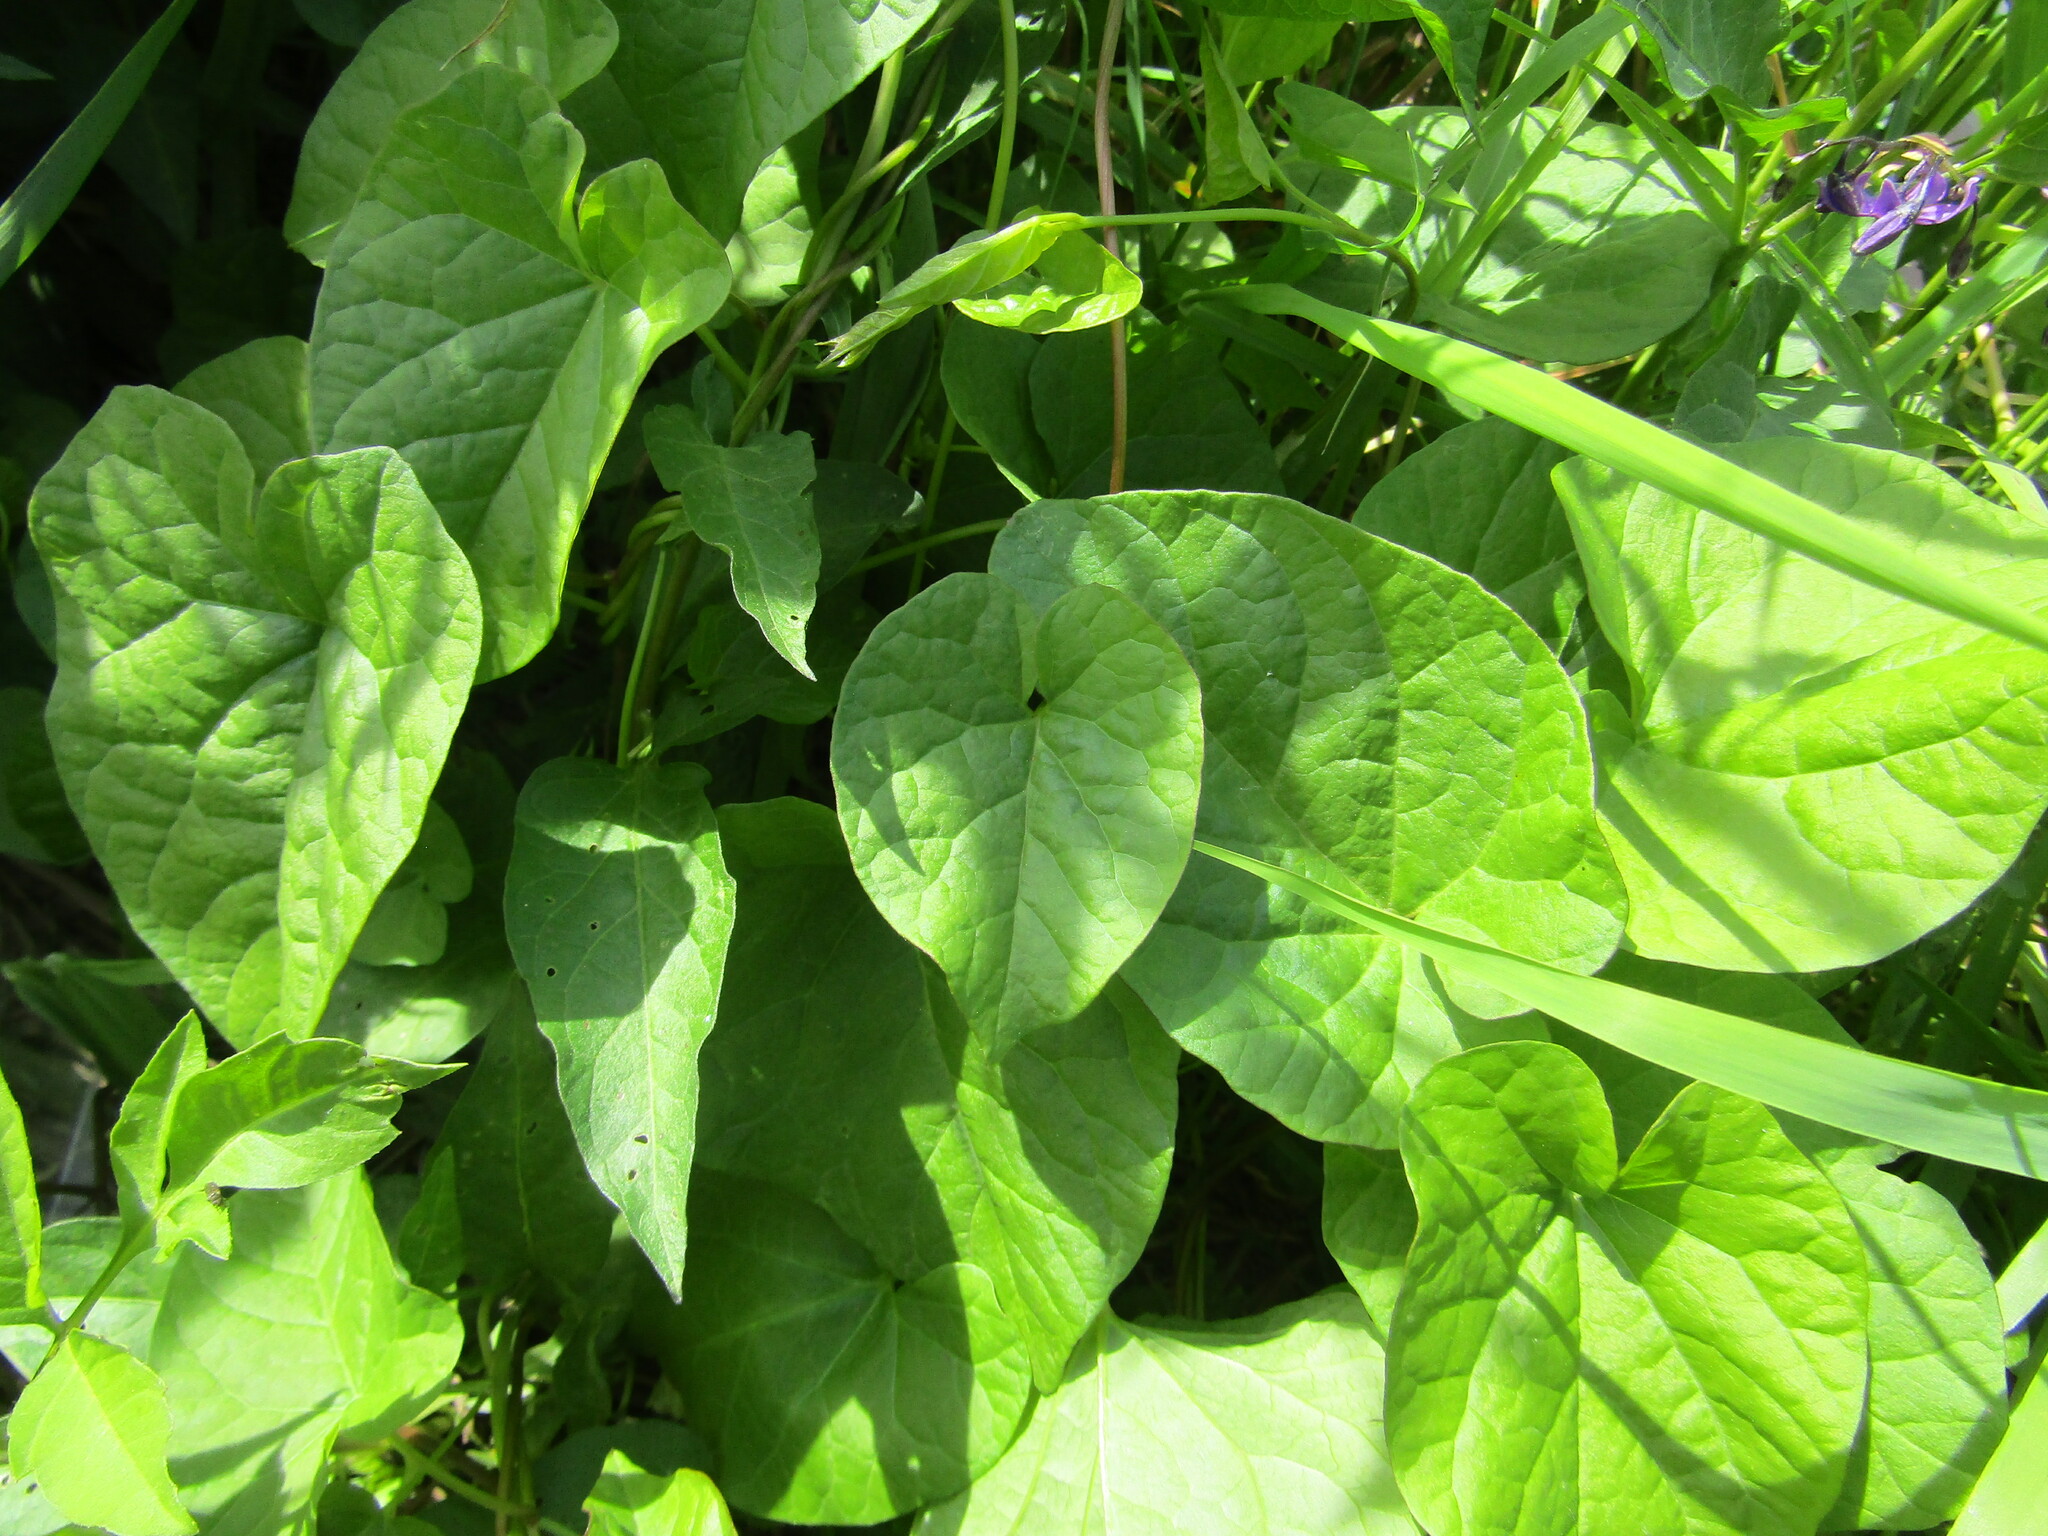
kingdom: Plantae
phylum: Tracheophyta
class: Magnoliopsida
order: Solanales
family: Convolvulaceae
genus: Calystegia
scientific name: Calystegia
